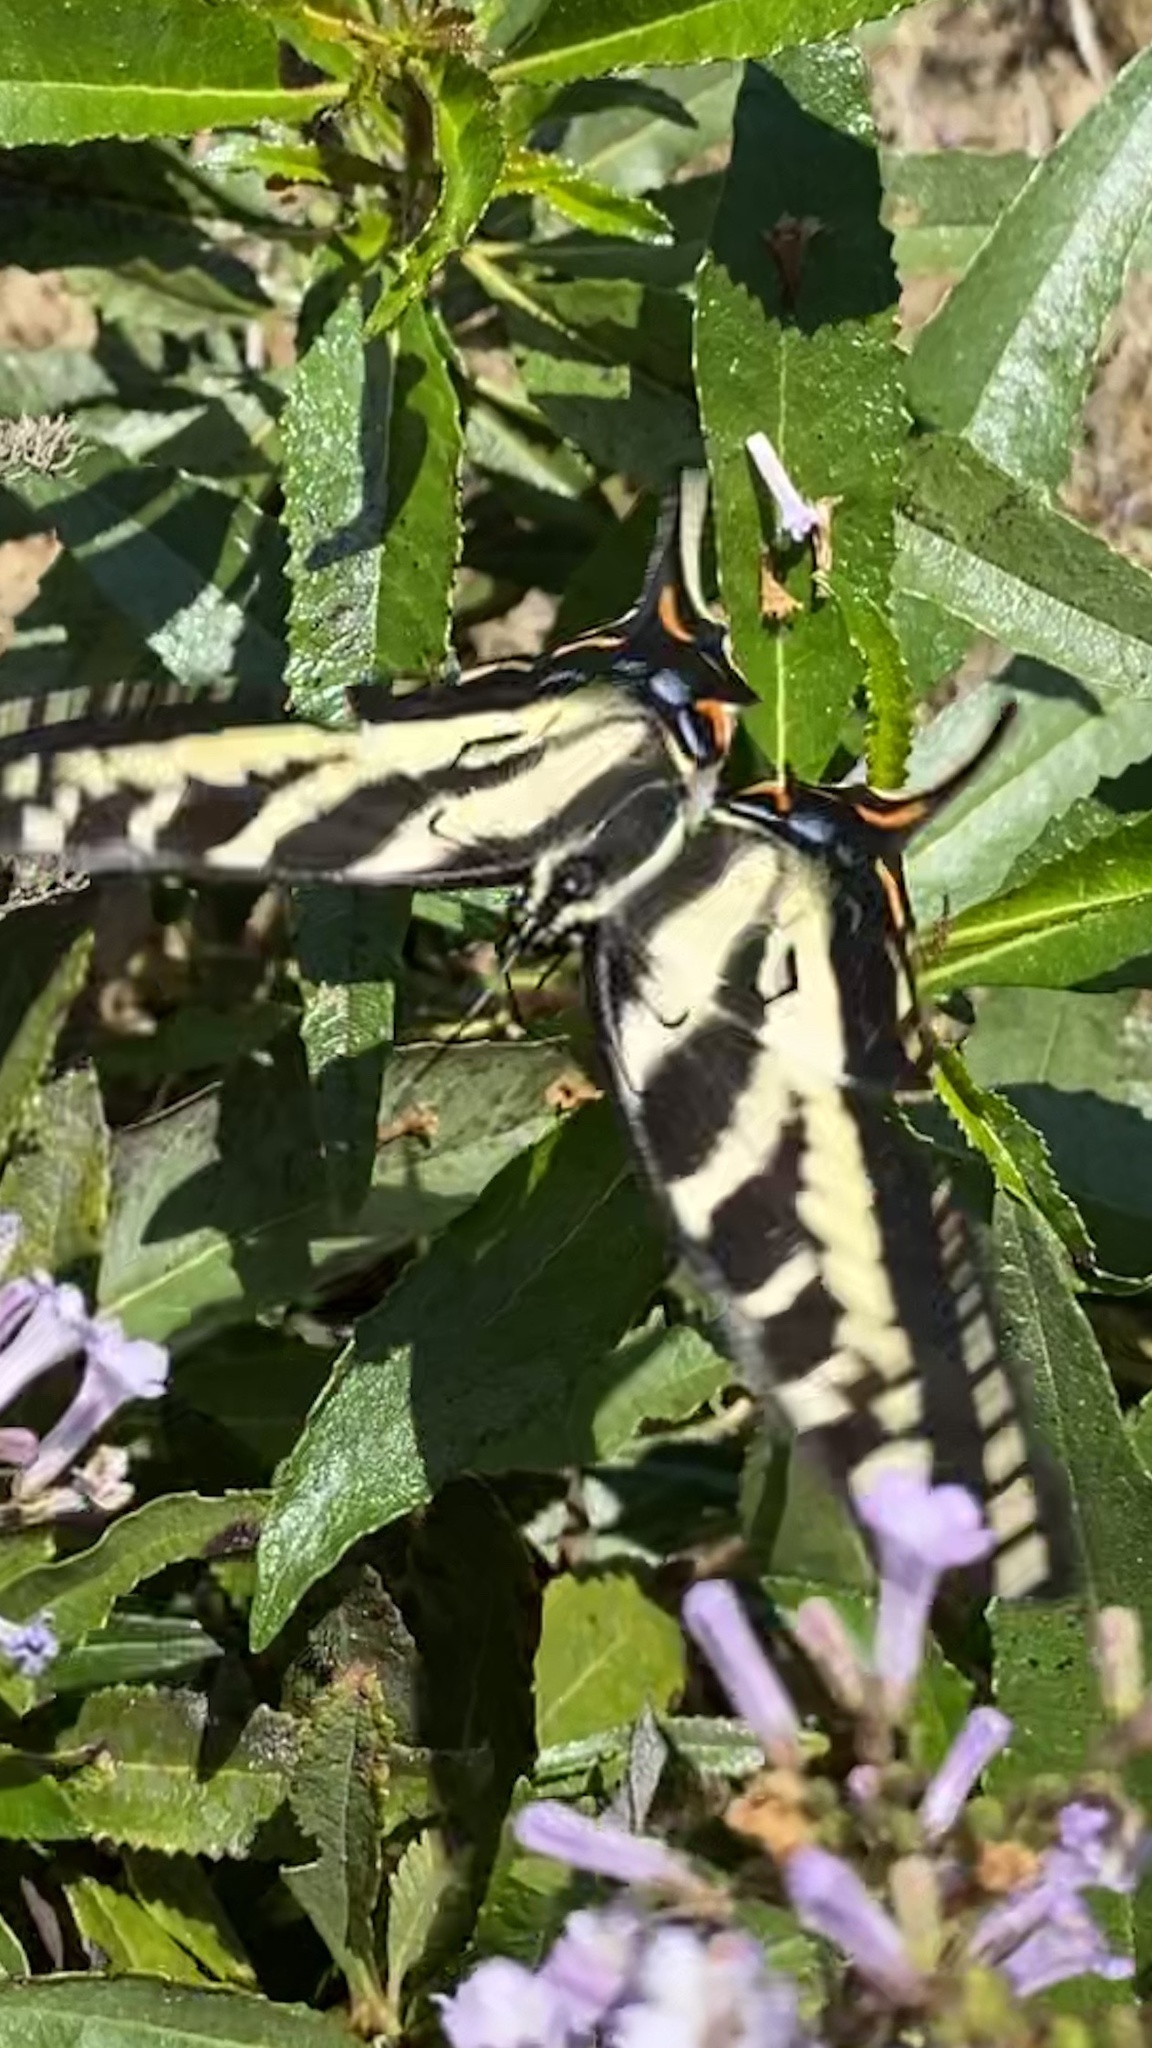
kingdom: Animalia
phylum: Arthropoda
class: Insecta
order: Lepidoptera
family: Papilionidae
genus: Papilio
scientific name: Papilio eurymedon
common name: Pale tiger swallowtail
